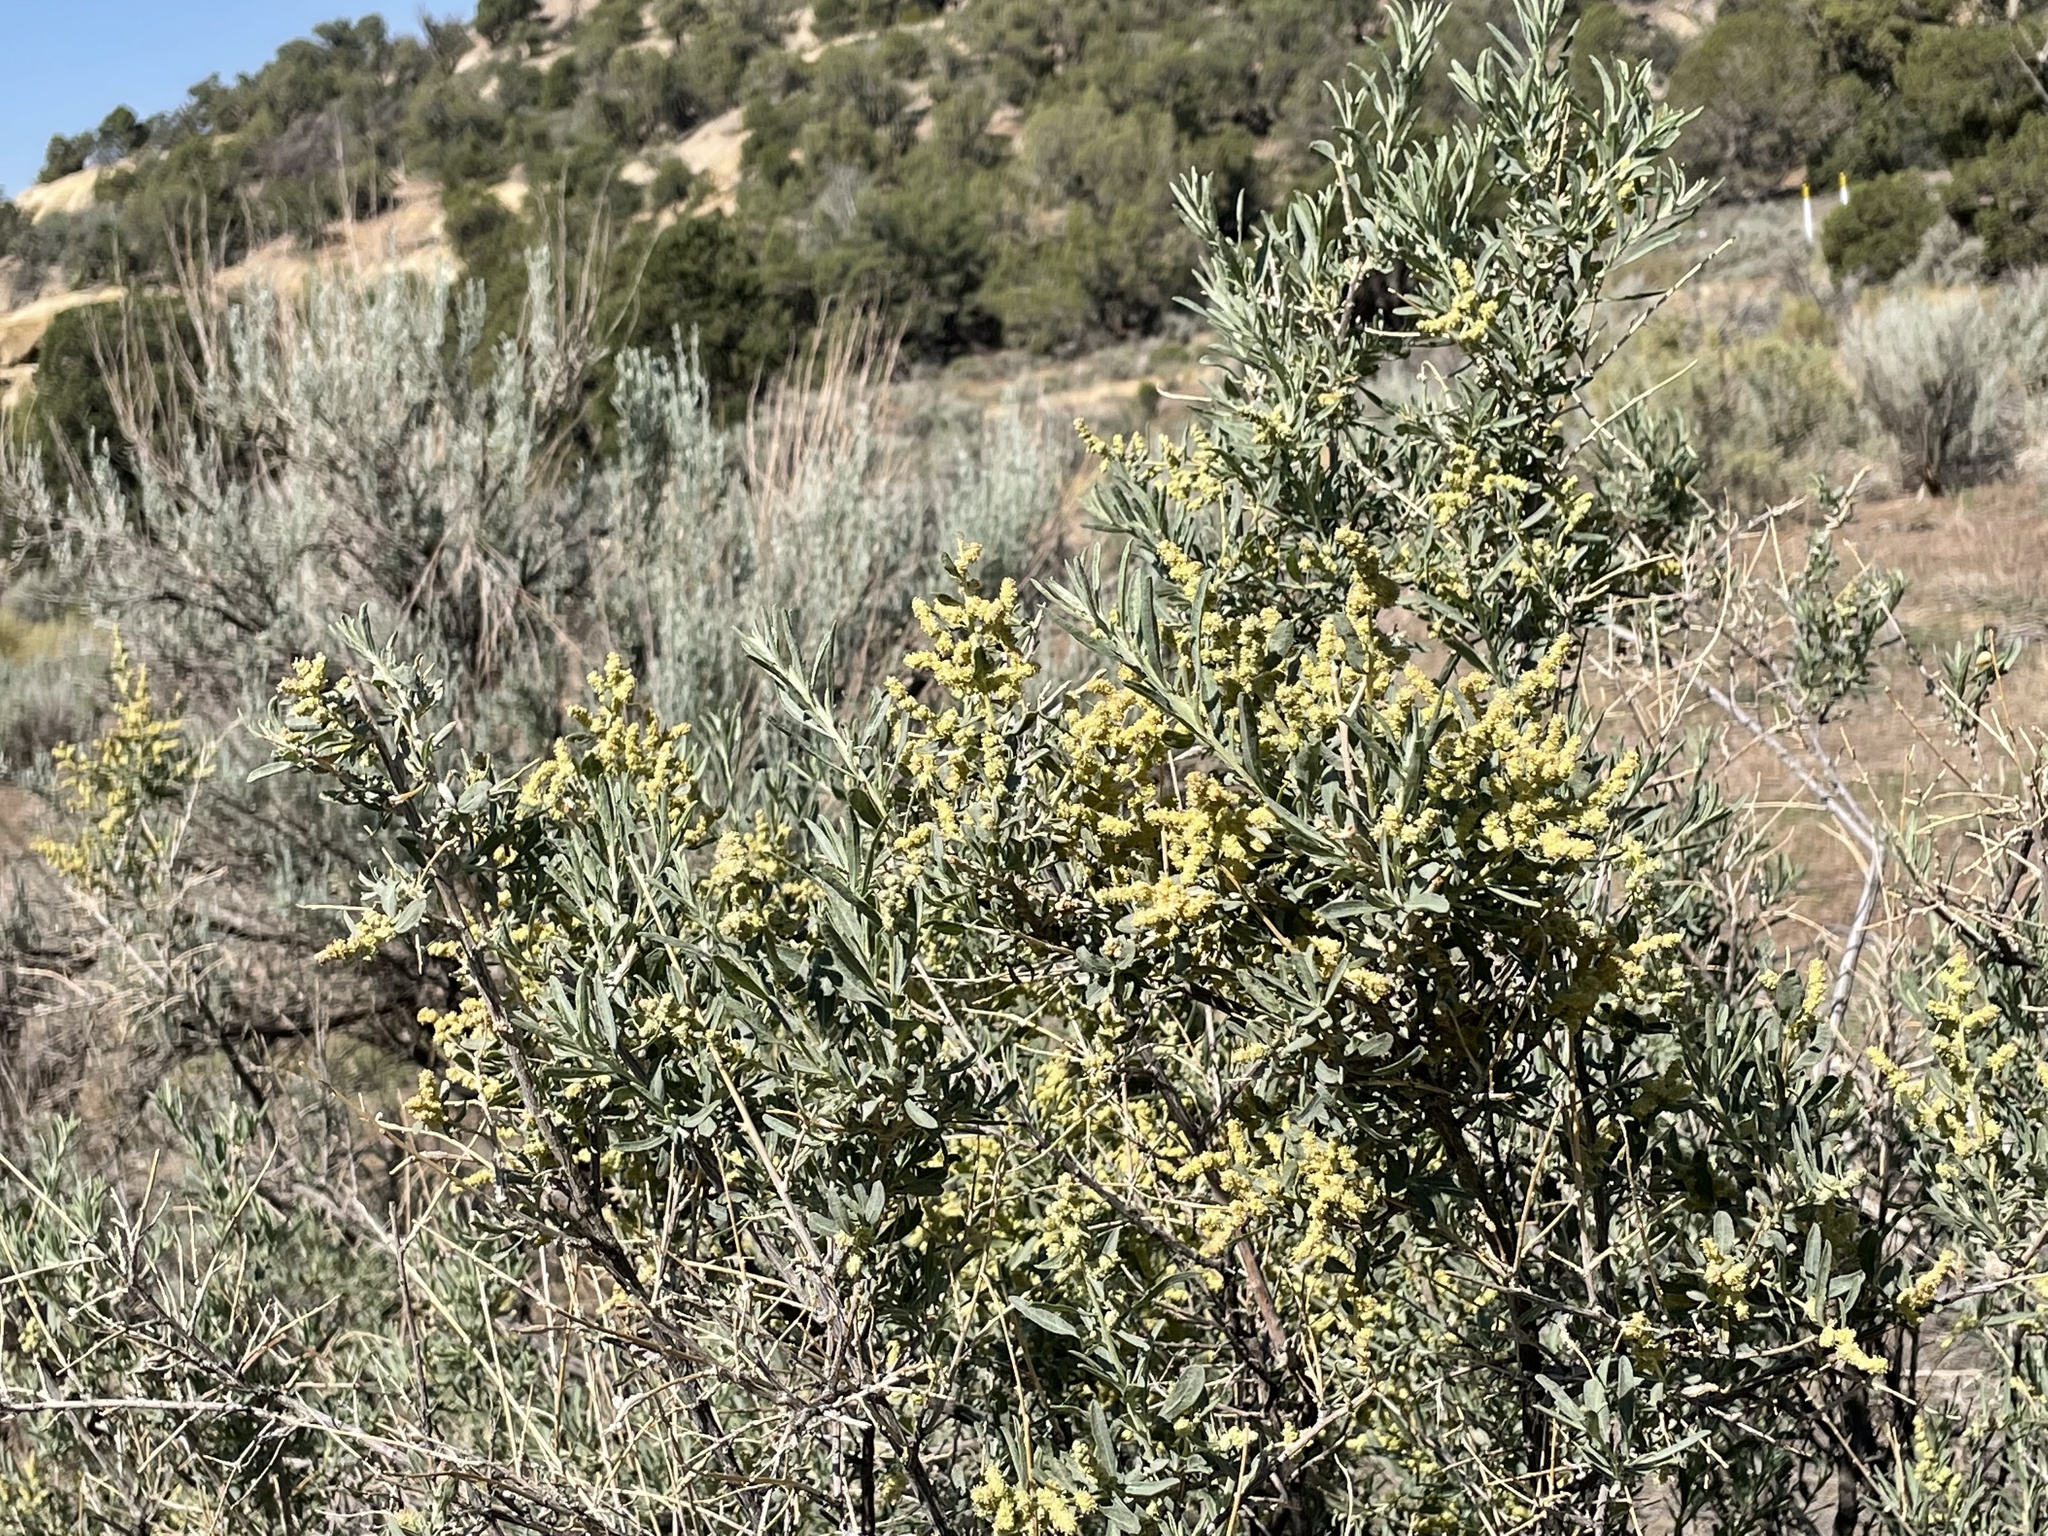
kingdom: Plantae
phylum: Tracheophyta
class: Magnoliopsida
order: Caryophyllales
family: Amaranthaceae
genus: Atriplex
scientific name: Atriplex canescens
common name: Four-wing saltbush
